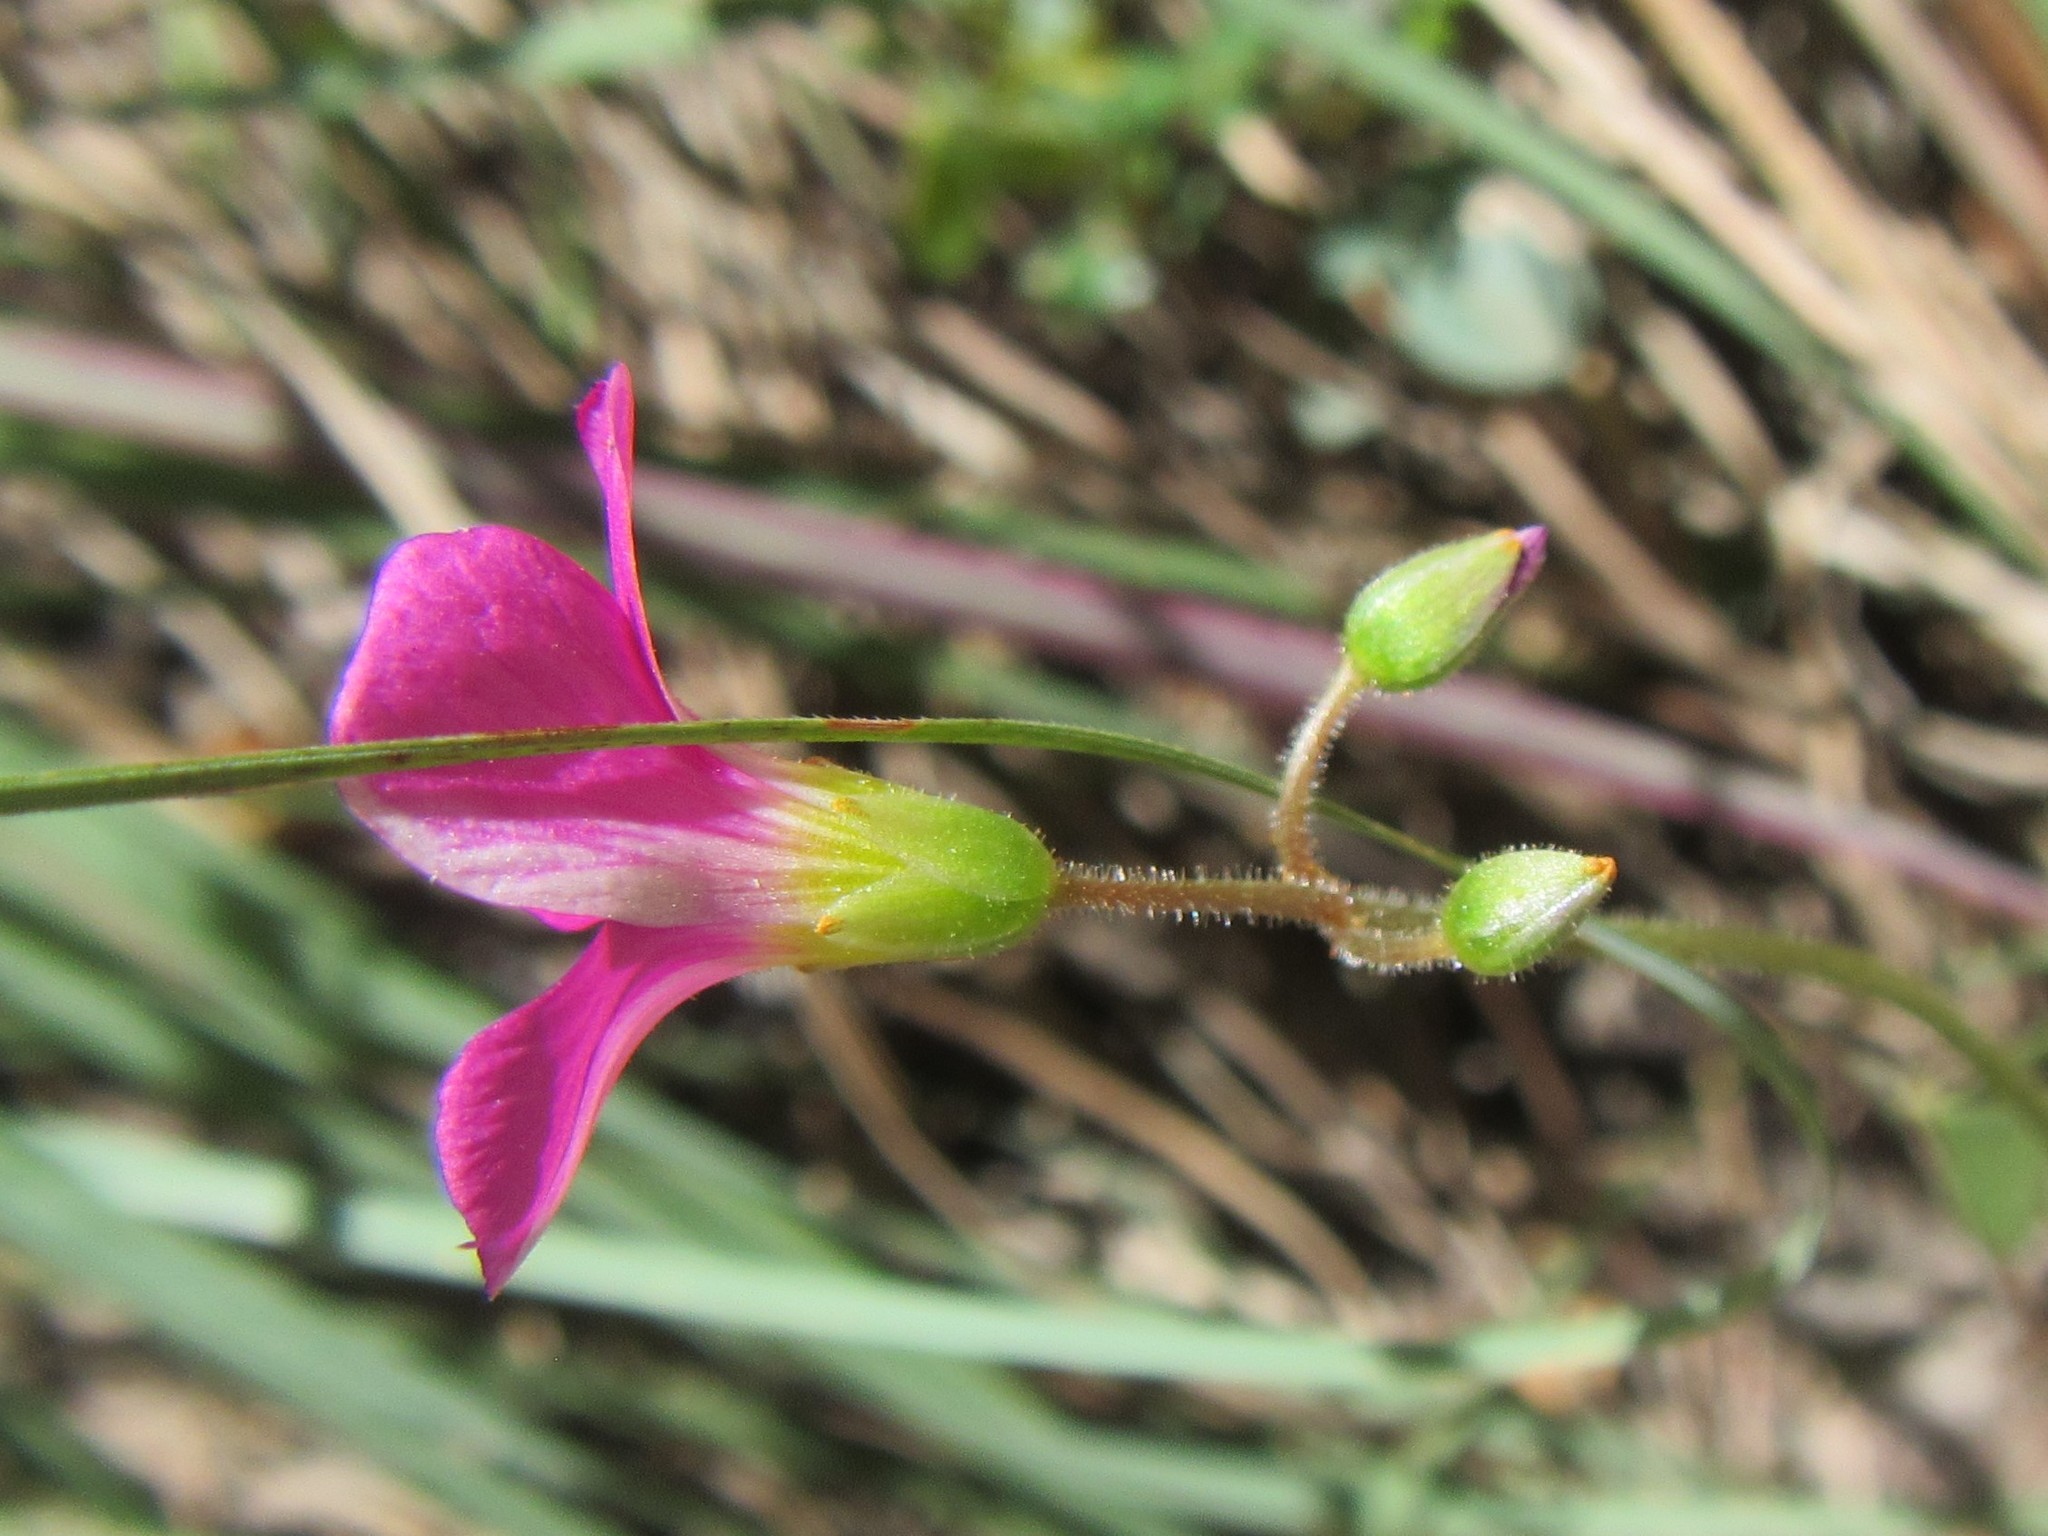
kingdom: Plantae
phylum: Tracheophyta
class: Magnoliopsida
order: Oxalidales
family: Oxalidaceae
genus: Oxalis
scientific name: Oxalis stellata
